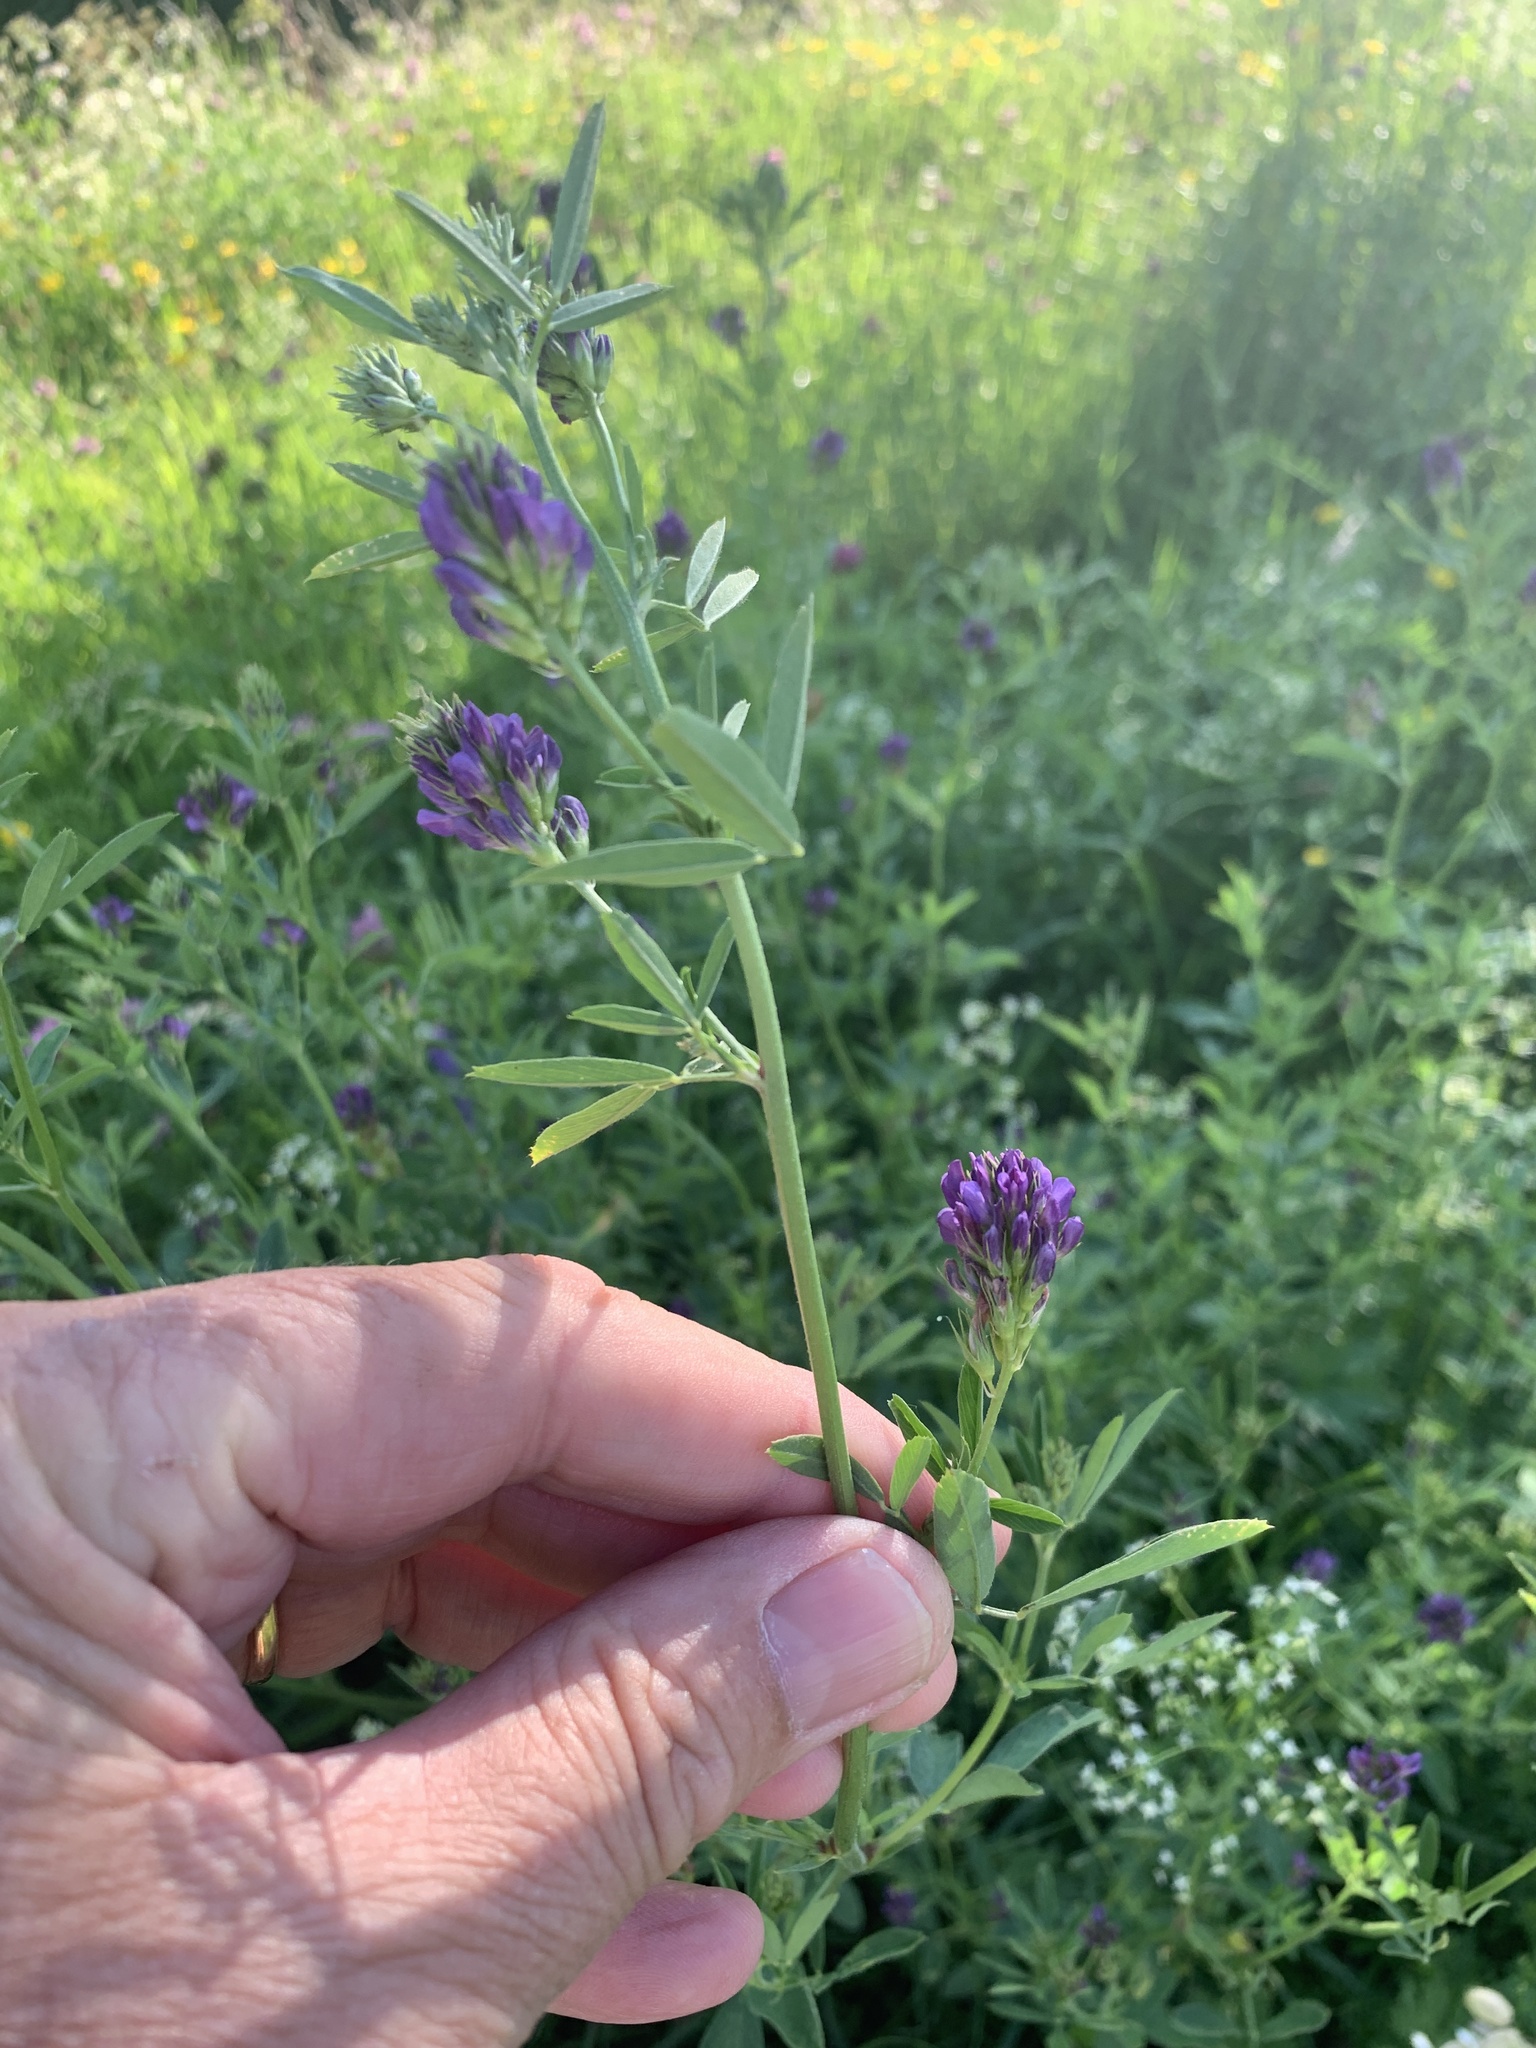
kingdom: Plantae
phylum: Tracheophyta
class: Magnoliopsida
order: Fabales
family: Fabaceae
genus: Medicago
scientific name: Medicago sativa
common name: Alfalfa
